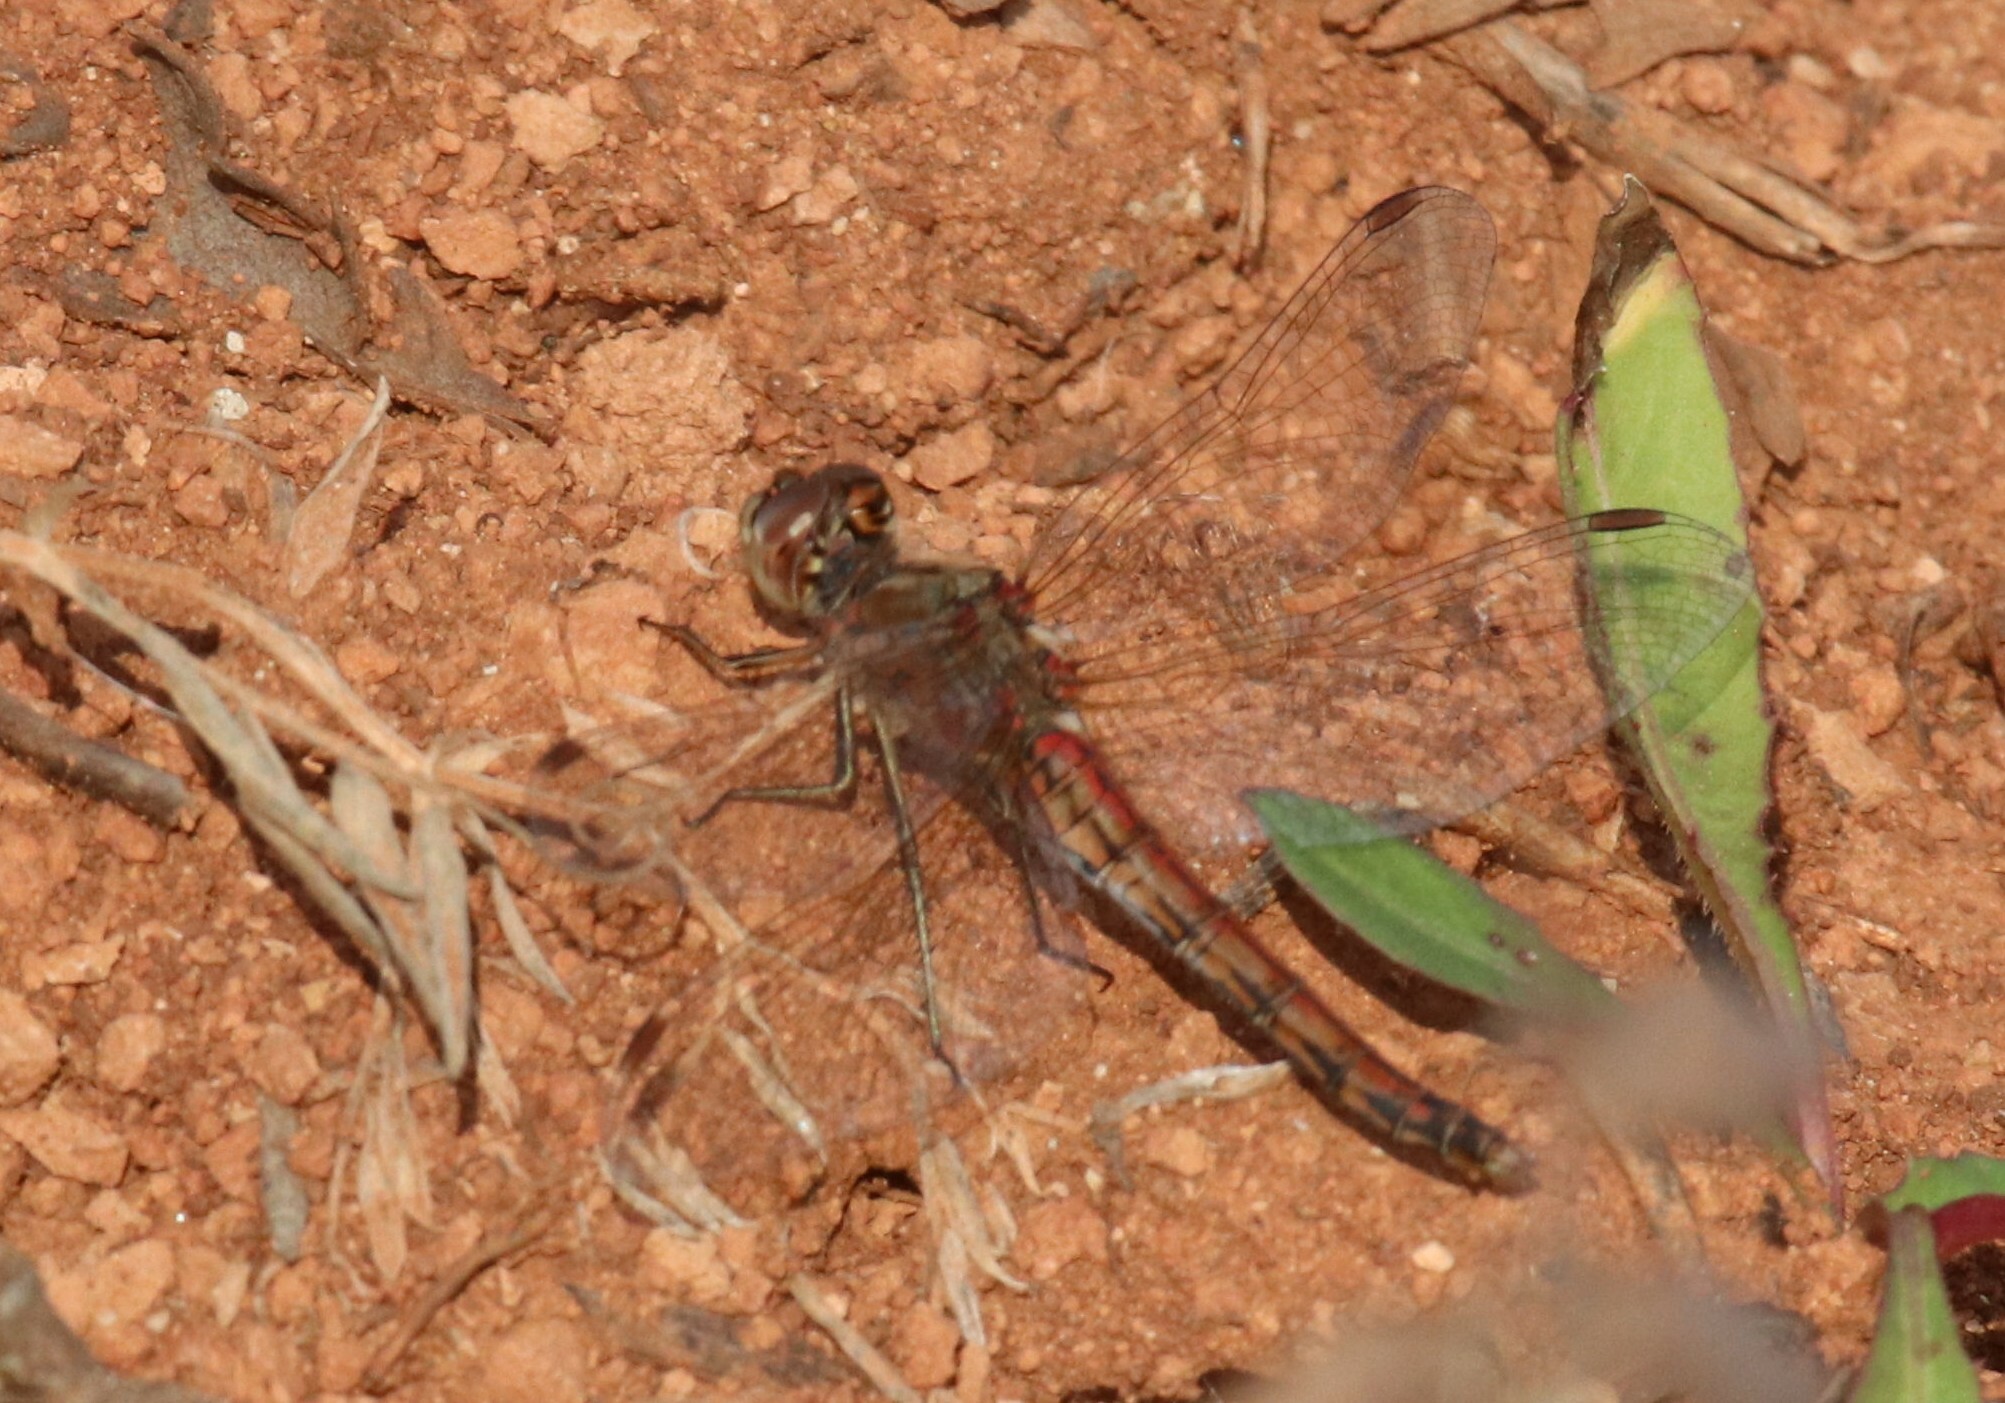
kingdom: Animalia
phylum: Arthropoda
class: Insecta
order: Odonata
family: Libellulidae
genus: Sympetrum
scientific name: Sympetrum vulgatum
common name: Vagrant darter
